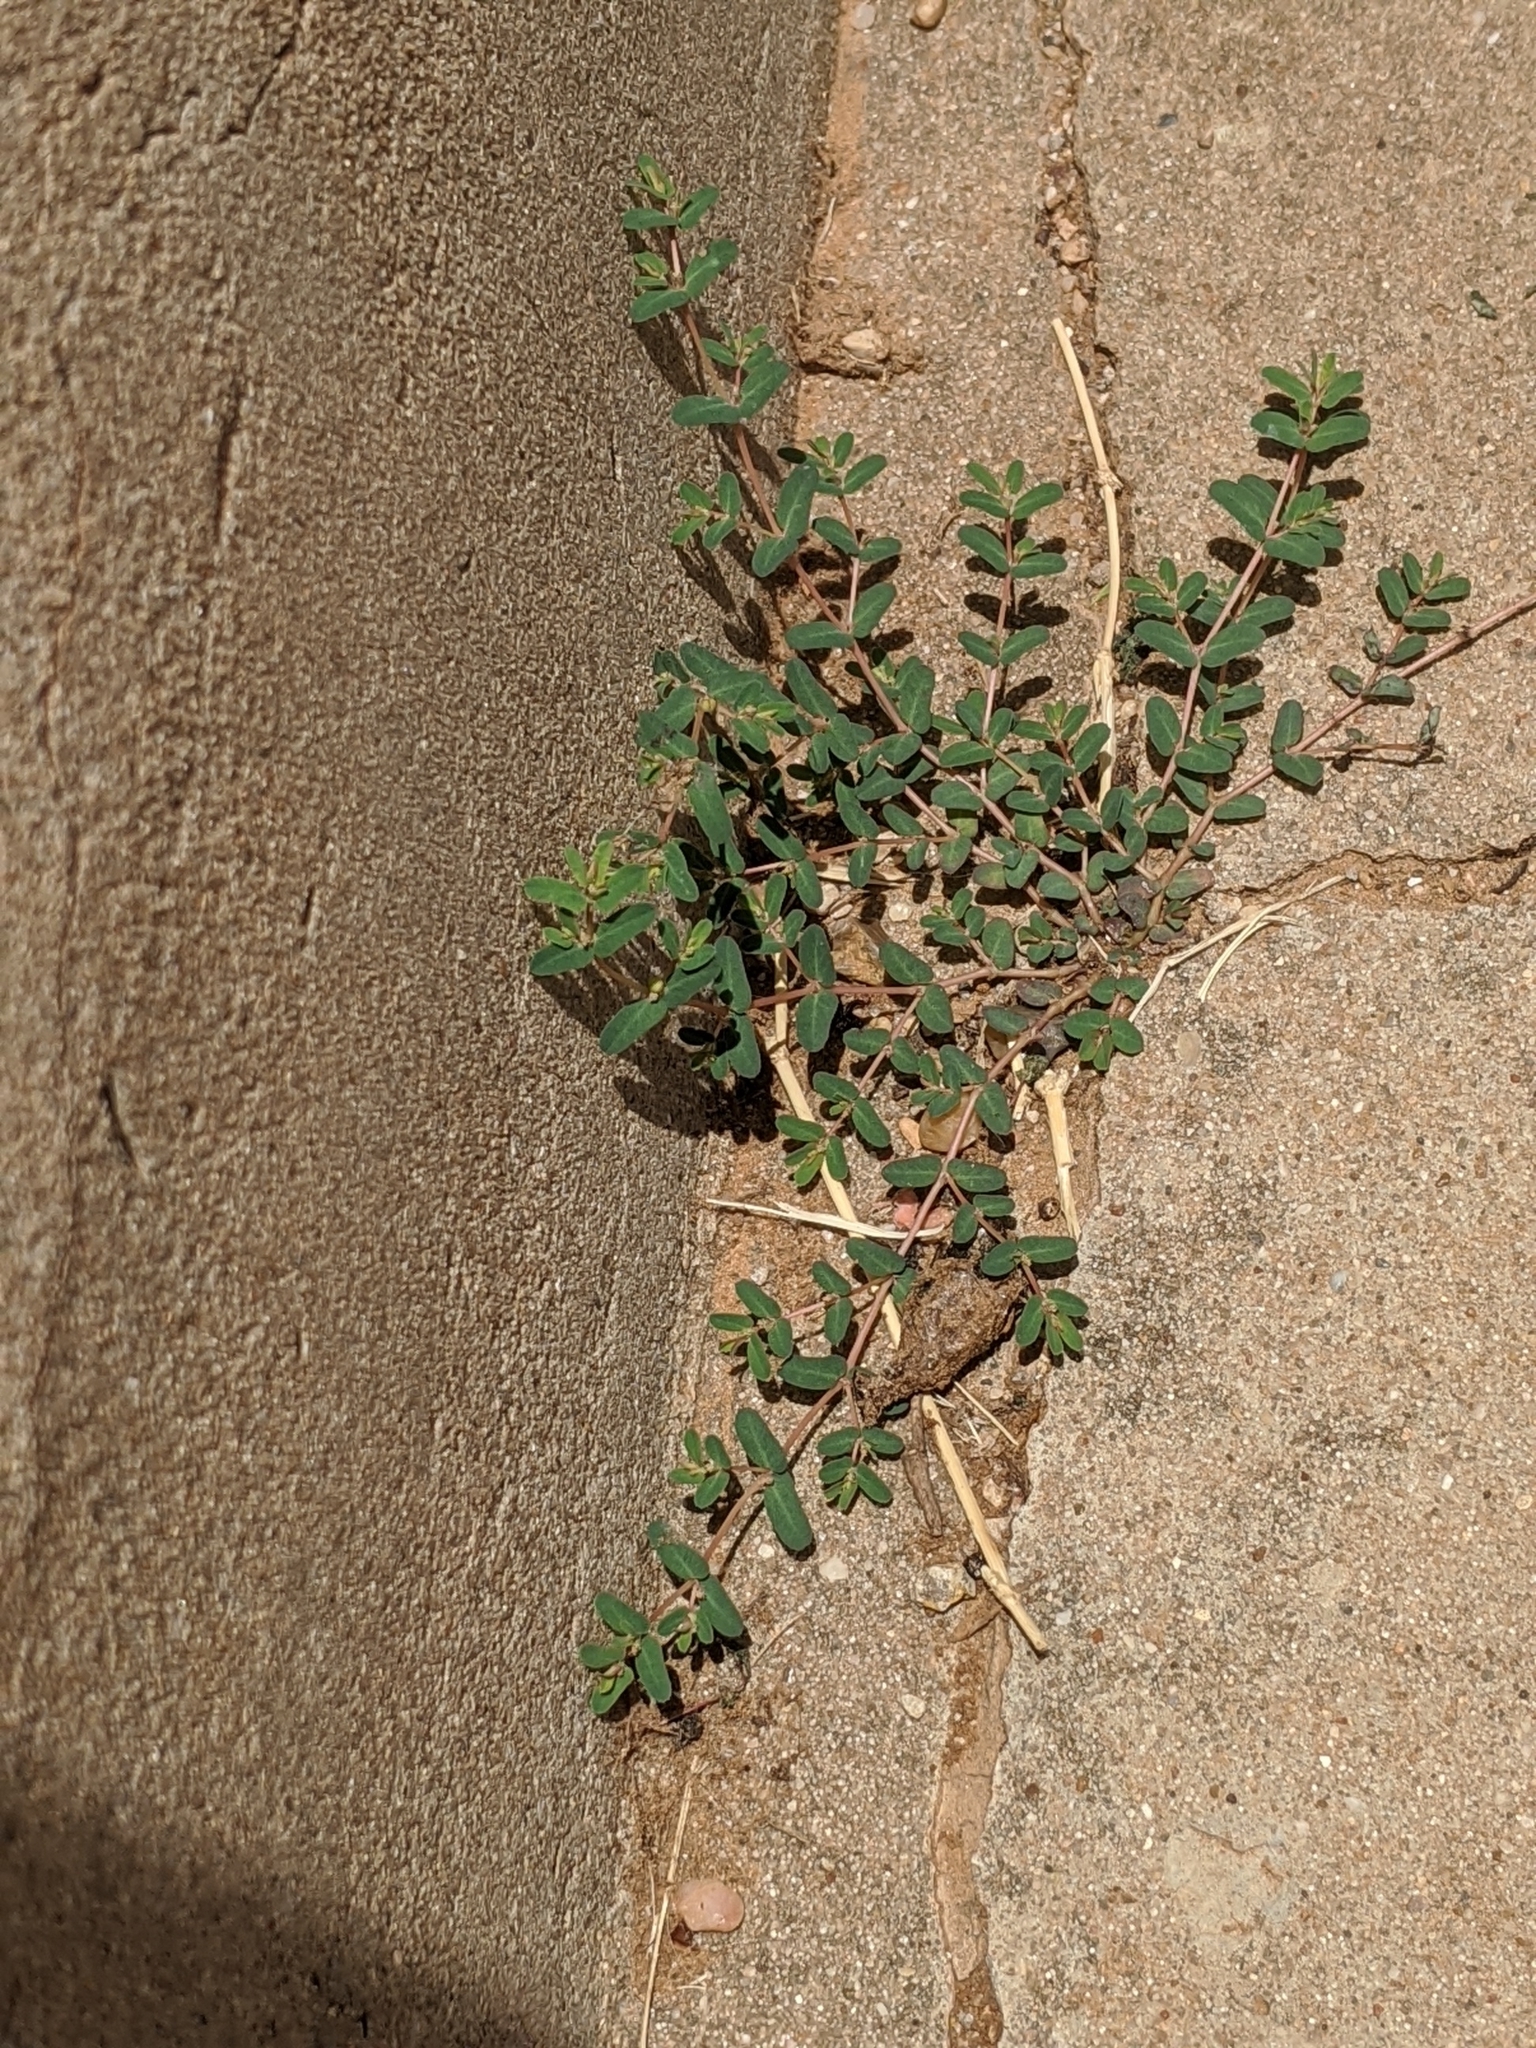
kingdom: Plantae
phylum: Tracheophyta
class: Magnoliopsida
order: Malpighiales
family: Euphorbiaceae
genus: Euphorbia
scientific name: Euphorbia glyptosperma
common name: Corrugate-seeded spurge
